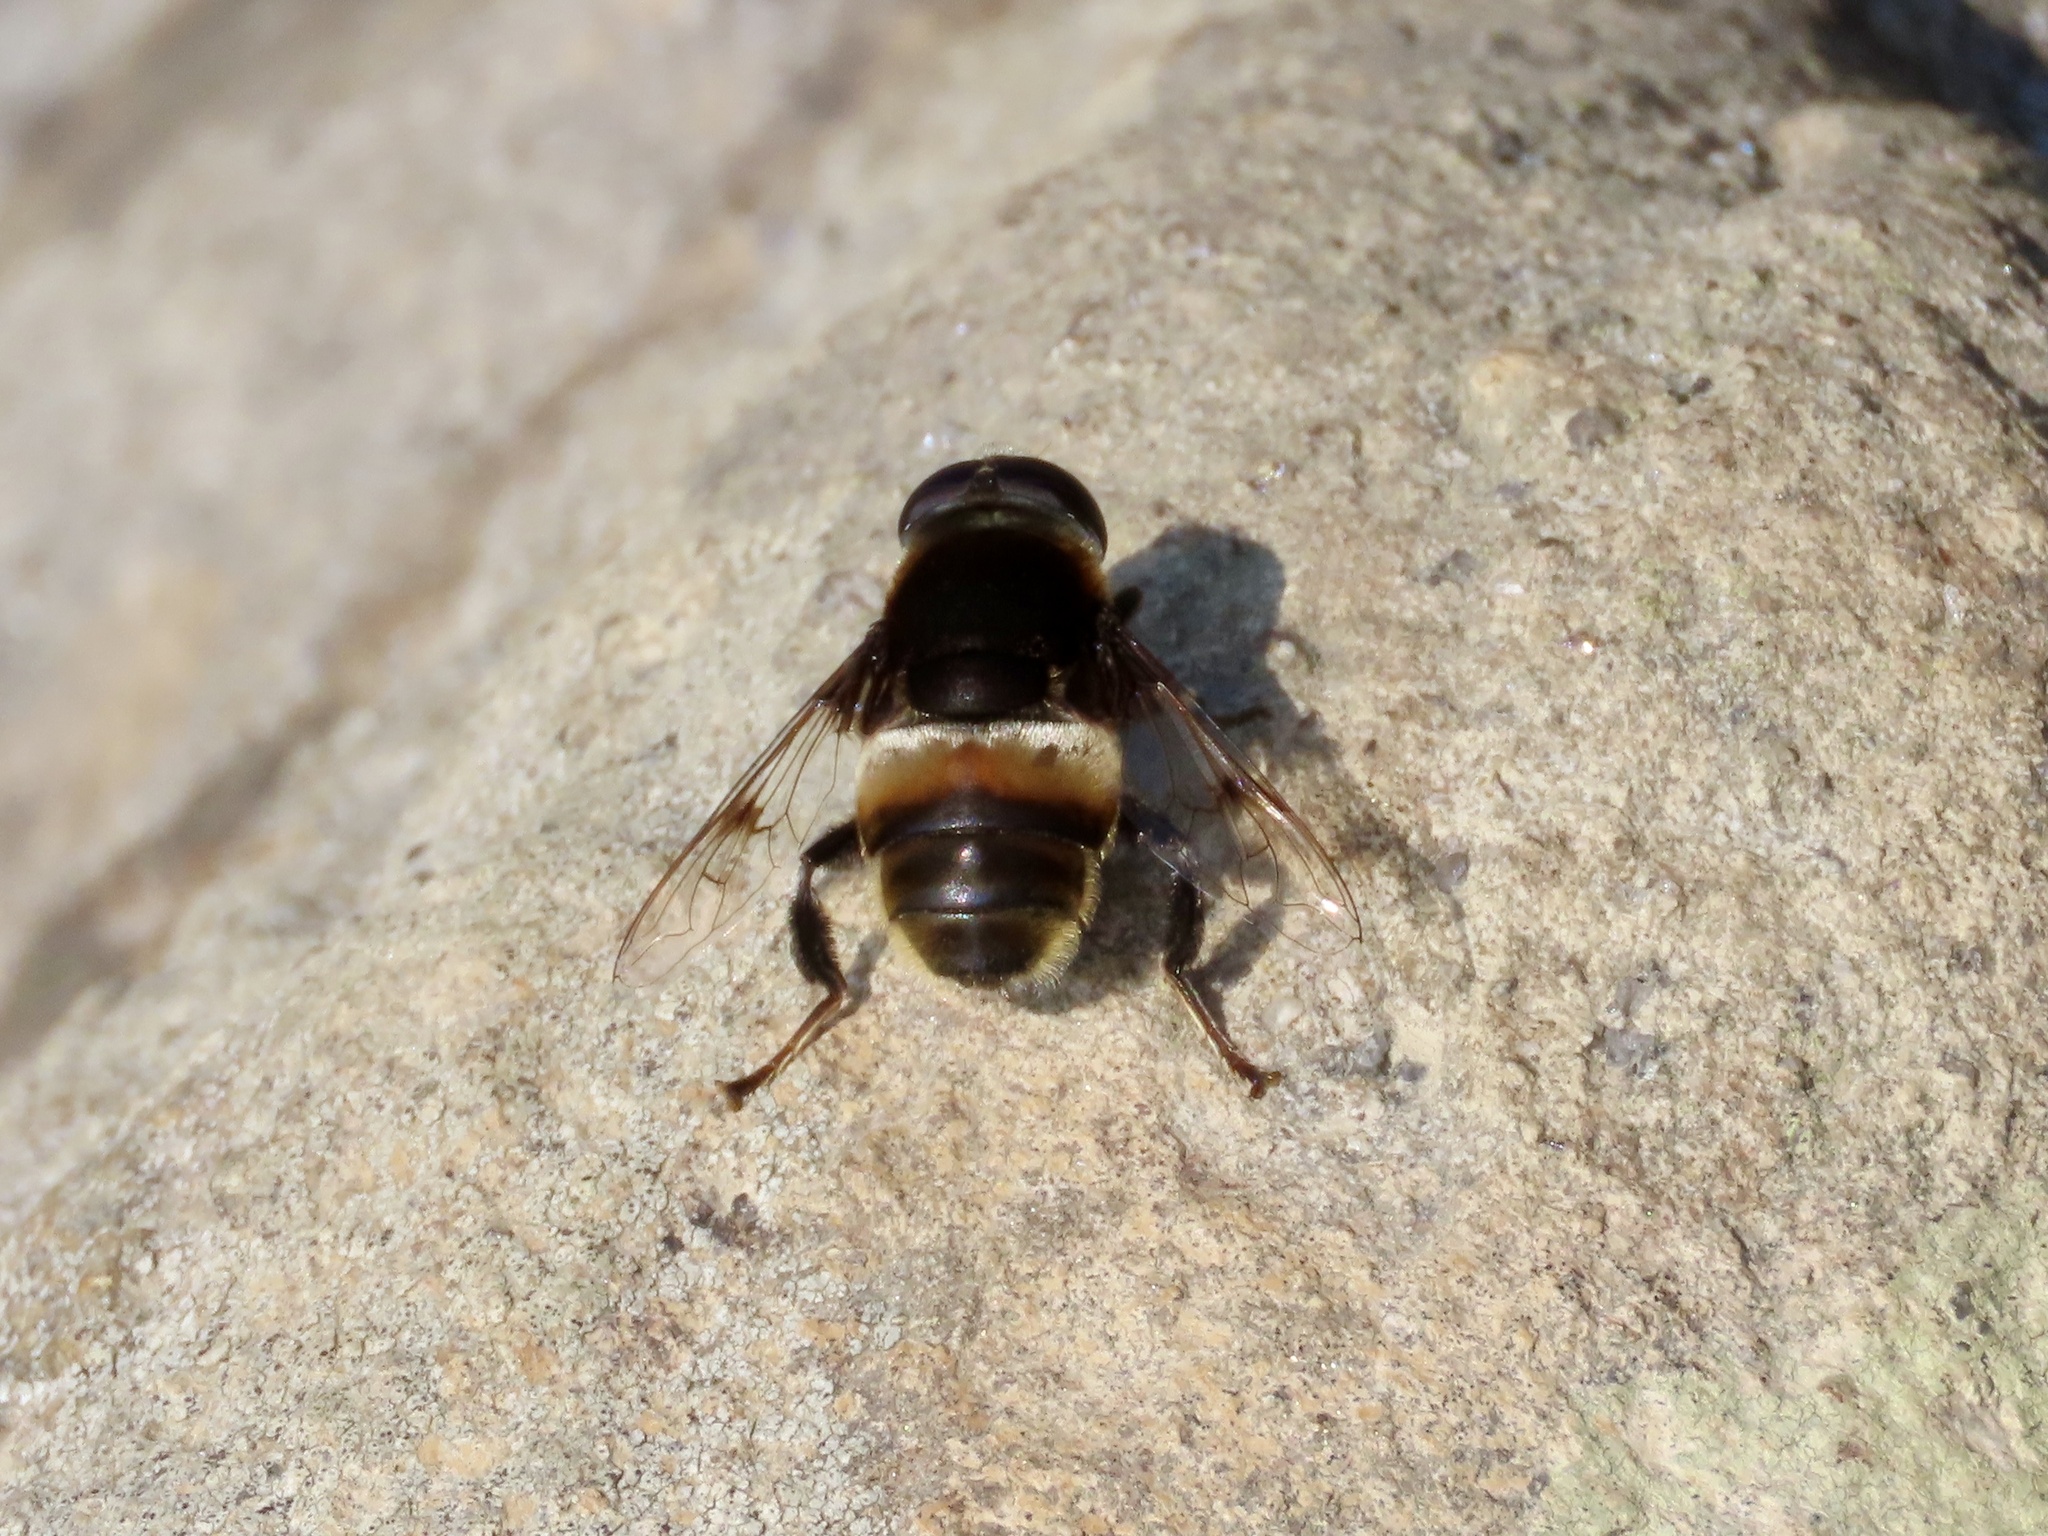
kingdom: Animalia
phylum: Arthropoda
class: Insecta
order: Diptera
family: Syrphidae
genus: Phytomia
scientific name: Phytomia zonata
